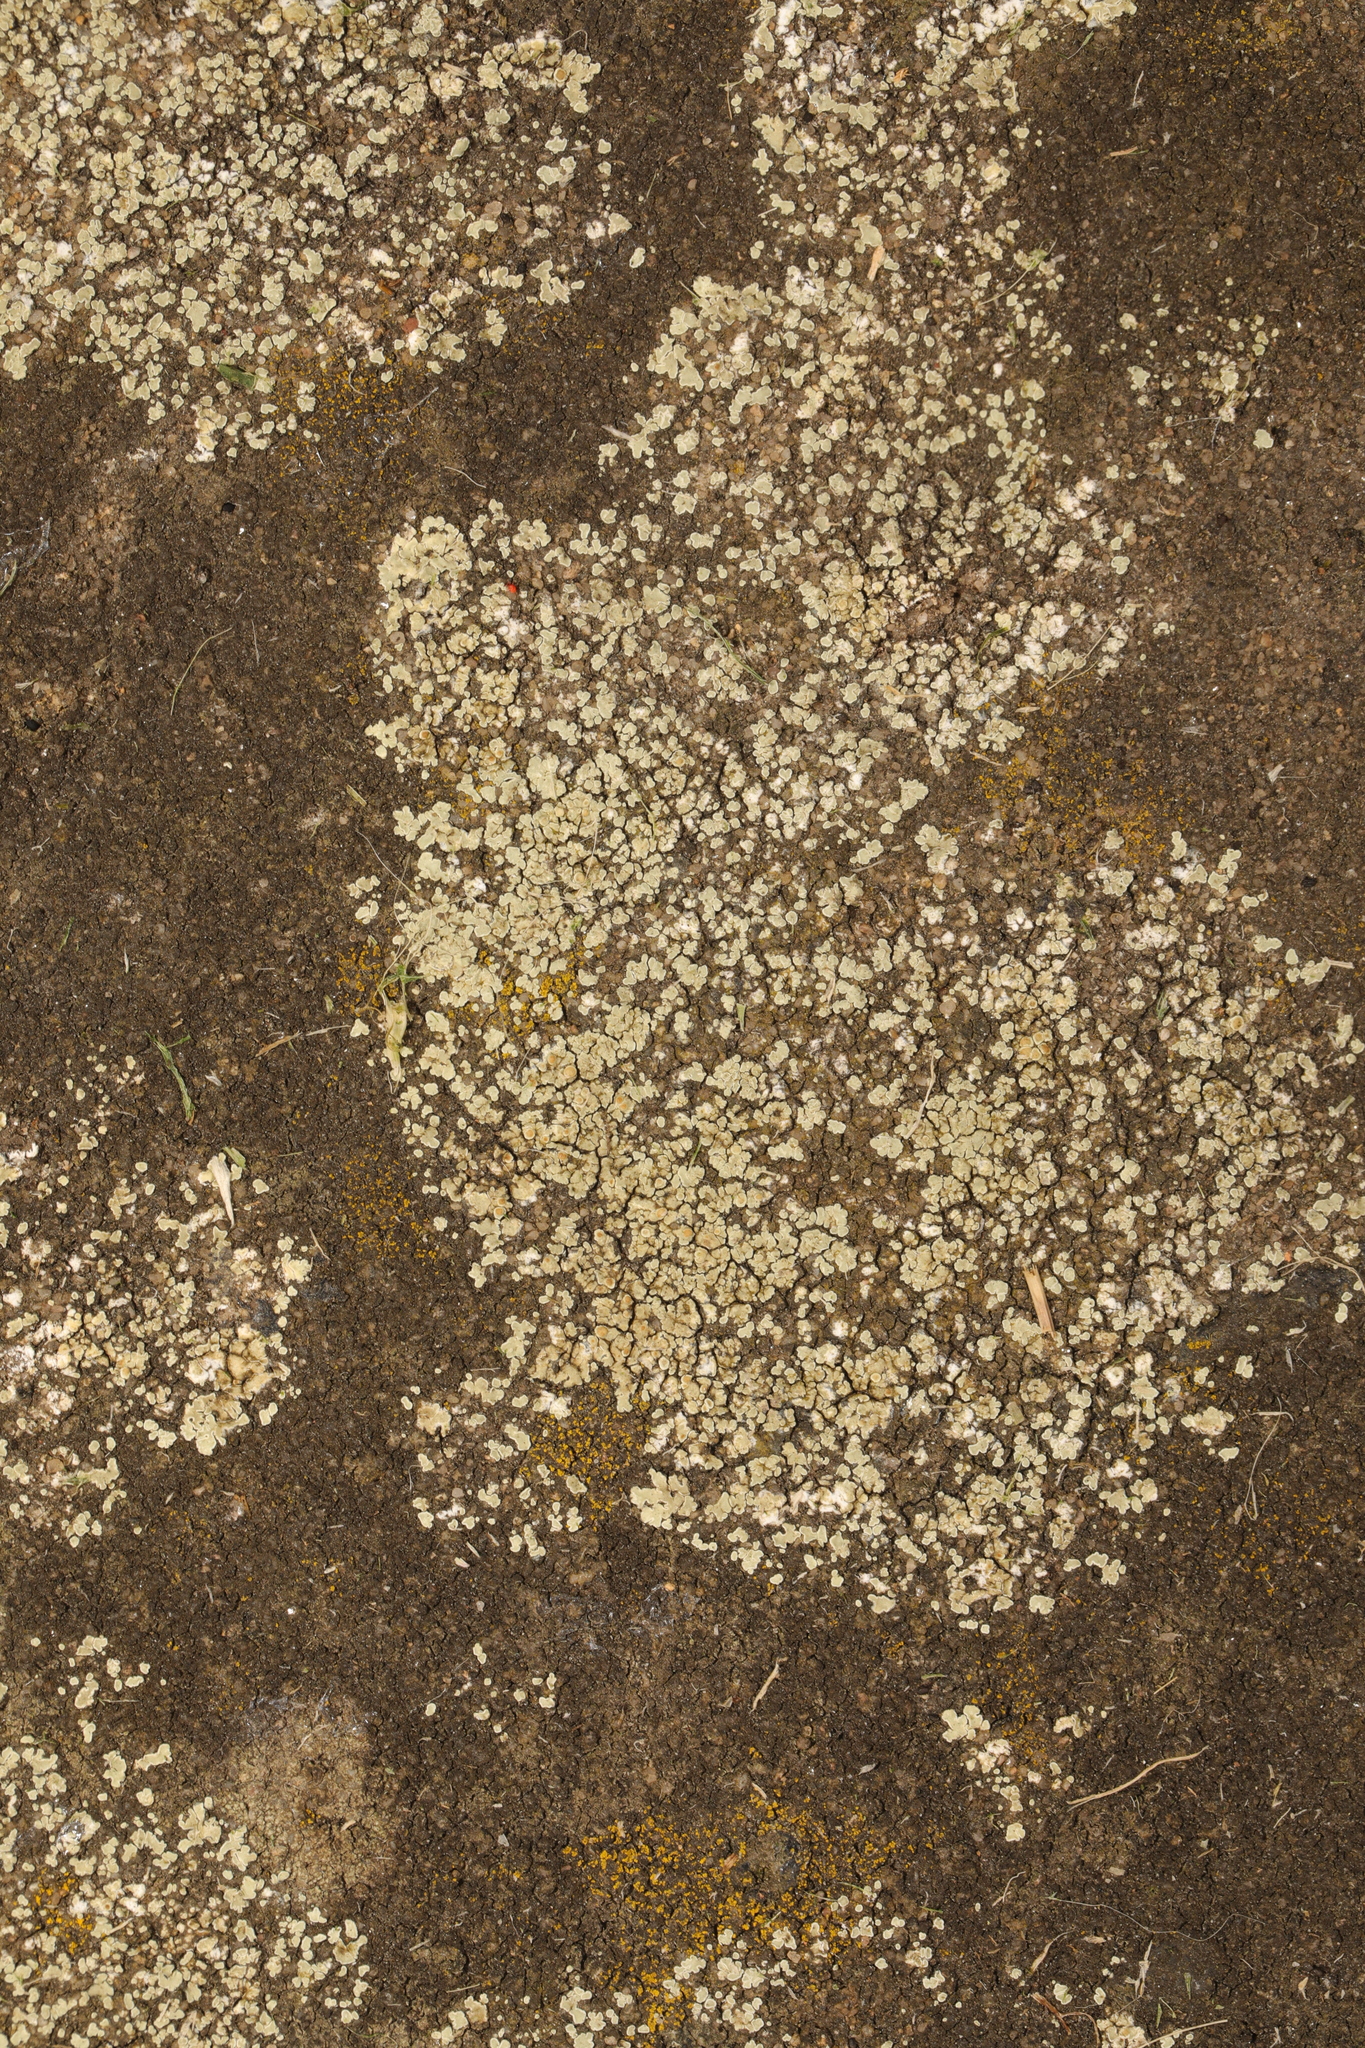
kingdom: Fungi
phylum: Ascomycota
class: Lecanoromycetes
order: Lecanorales
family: Lecanoraceae
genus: Protoparmeliopsis
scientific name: Protoparmeliopsis muralis
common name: Stonewall rim lichen
